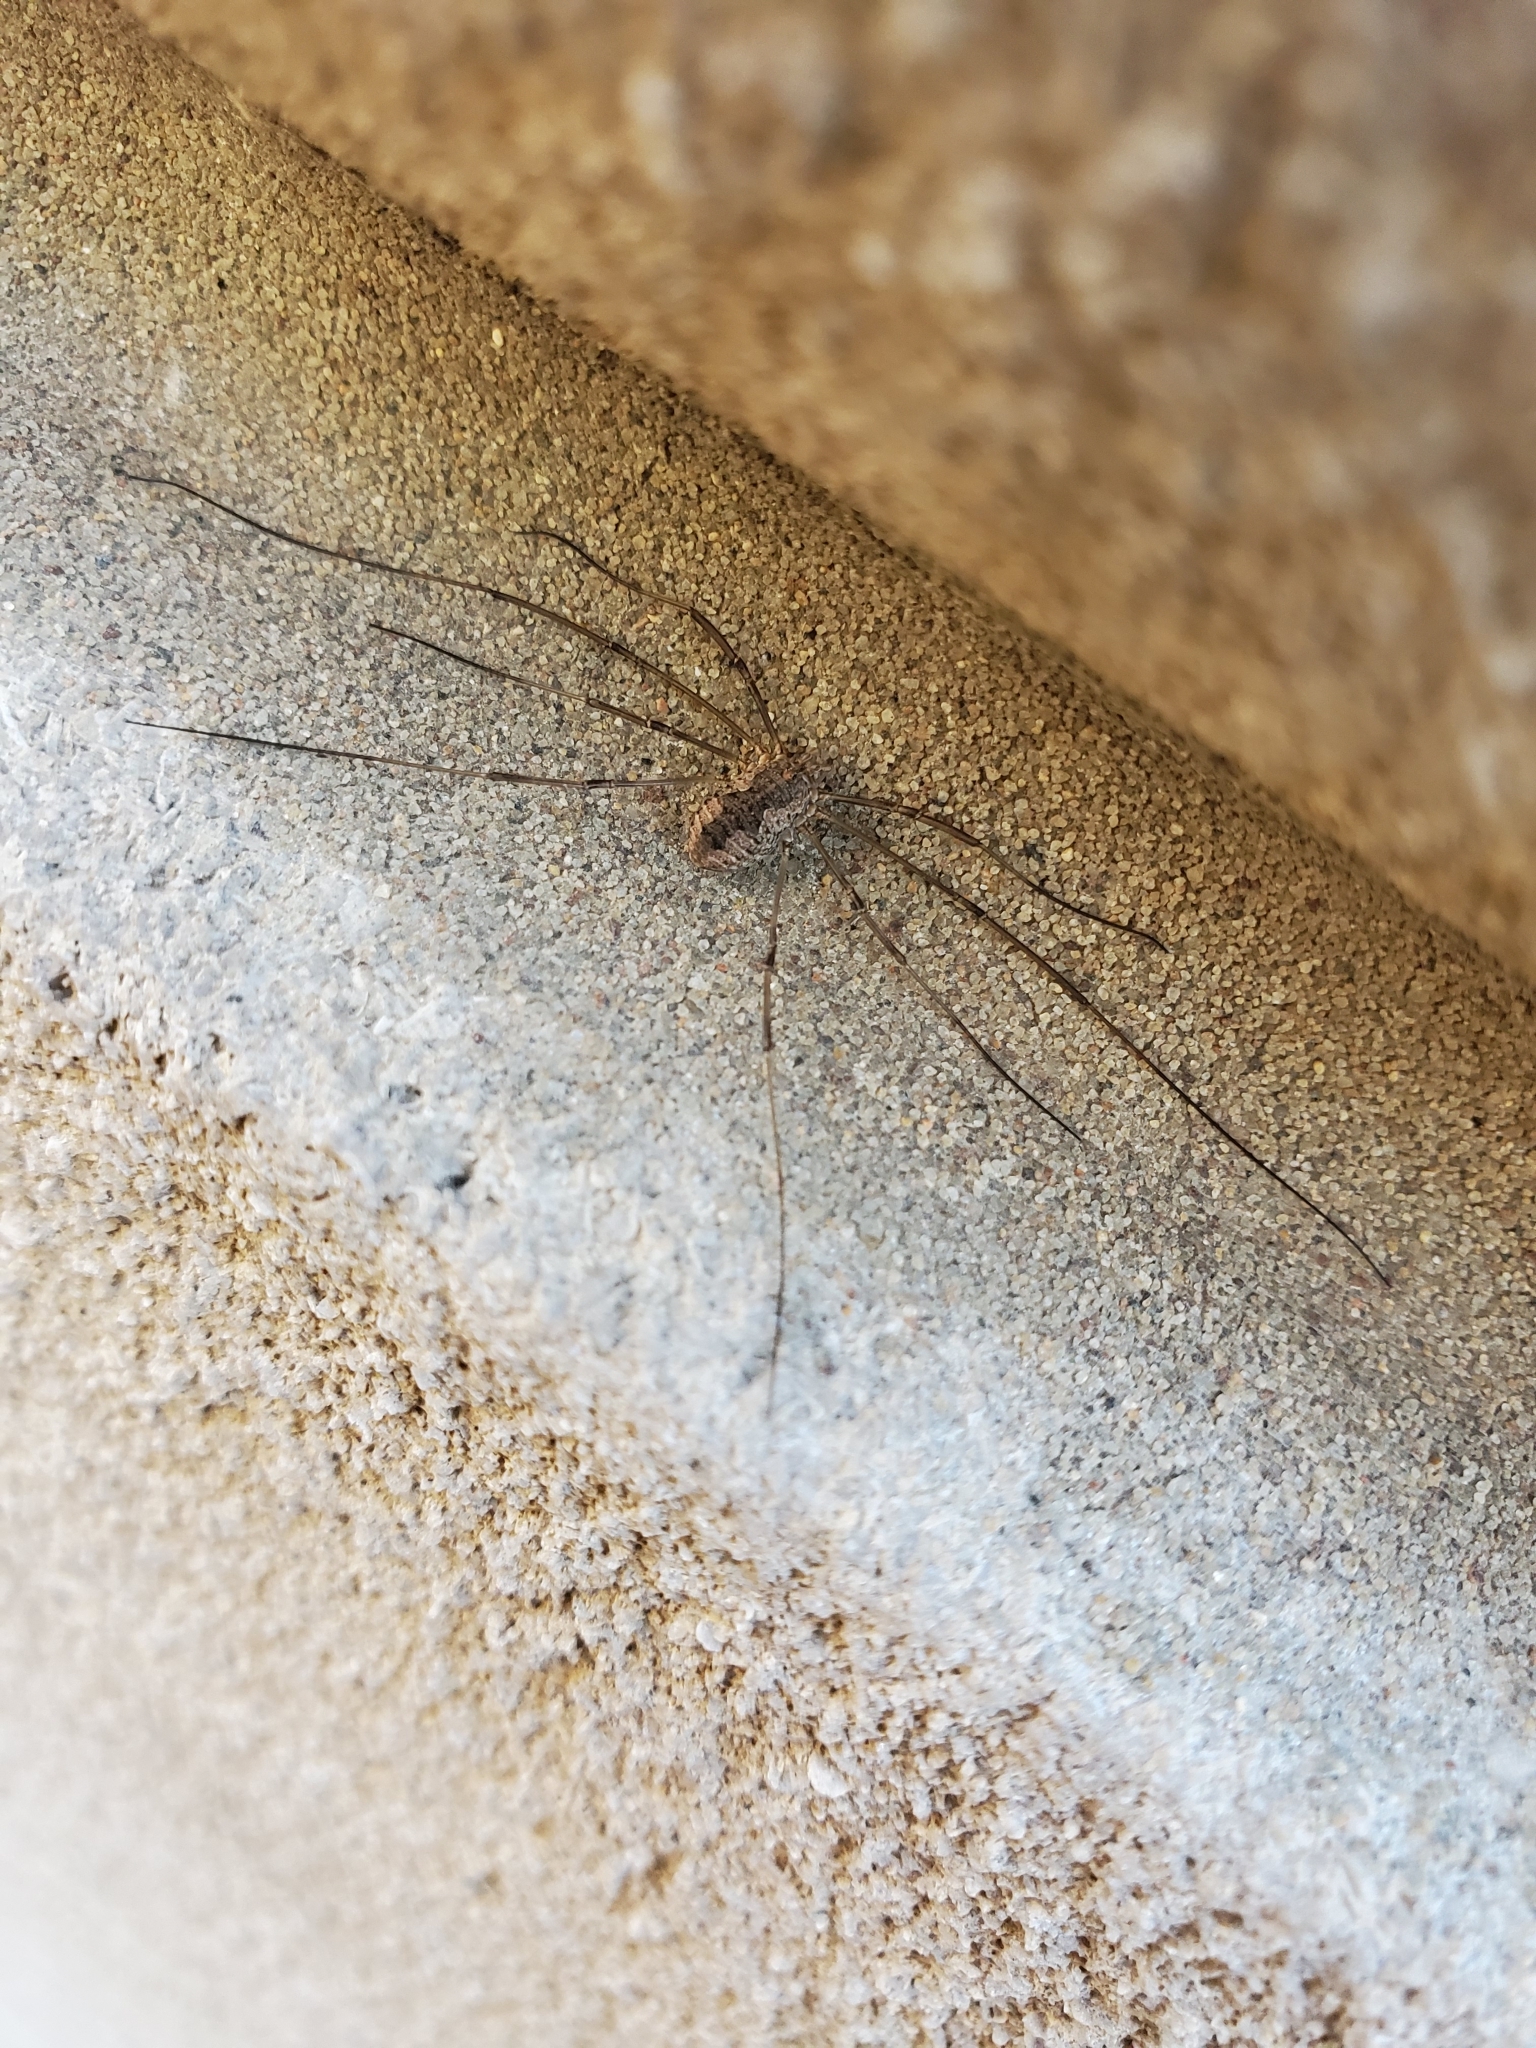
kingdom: Animalia
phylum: Arthropoda
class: Arachnida
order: Opiliones
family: Phalangiidae
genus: Phalangium
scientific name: Phalangium opilio
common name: Daddy longleg
